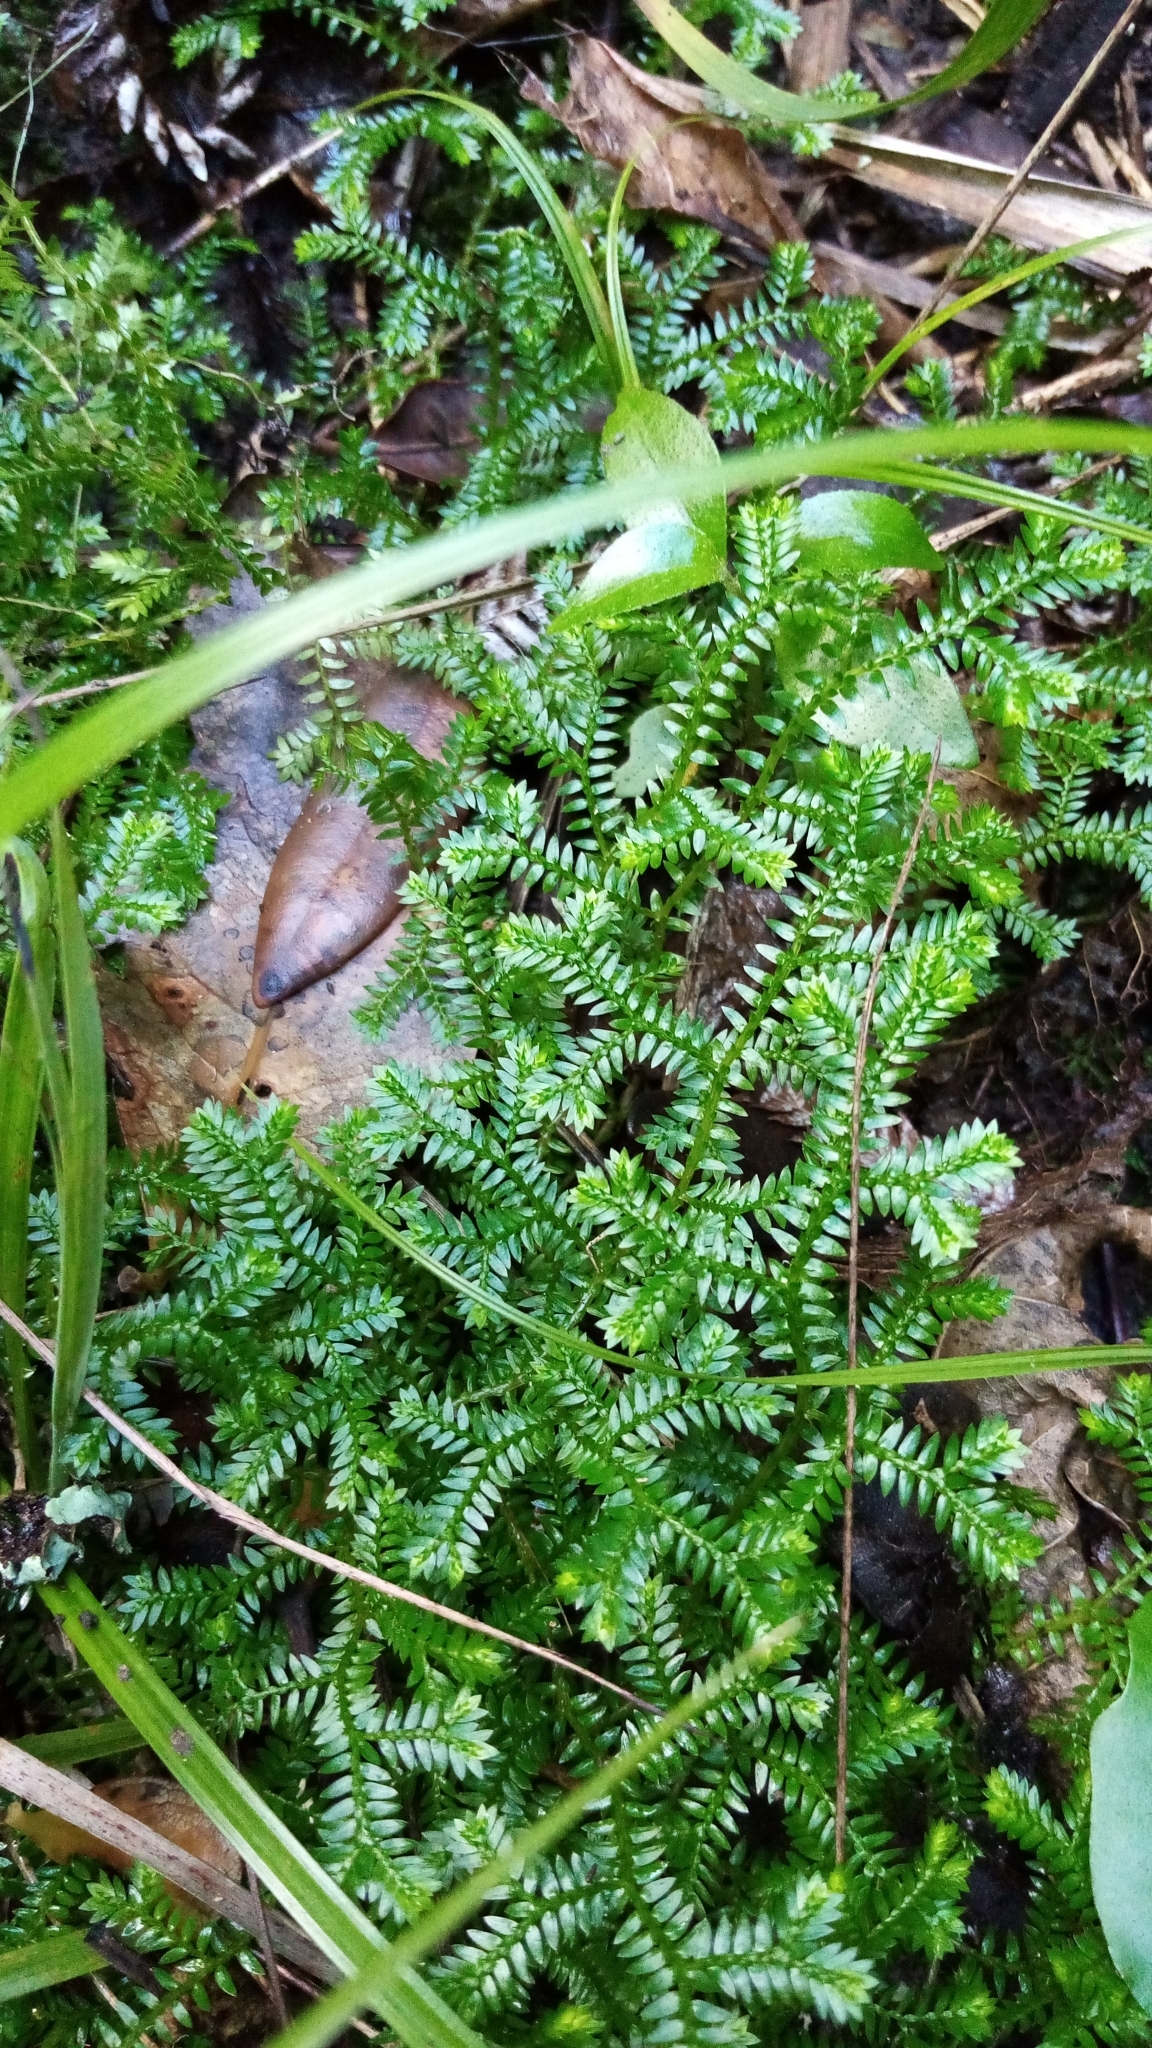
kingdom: Plantae
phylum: Tracheophyta
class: Lycopodiopsida
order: Selaginellales
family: Selaginellaceae
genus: Selaginella
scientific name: Selaginella kraussiana
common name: Krauss' spikemoss
